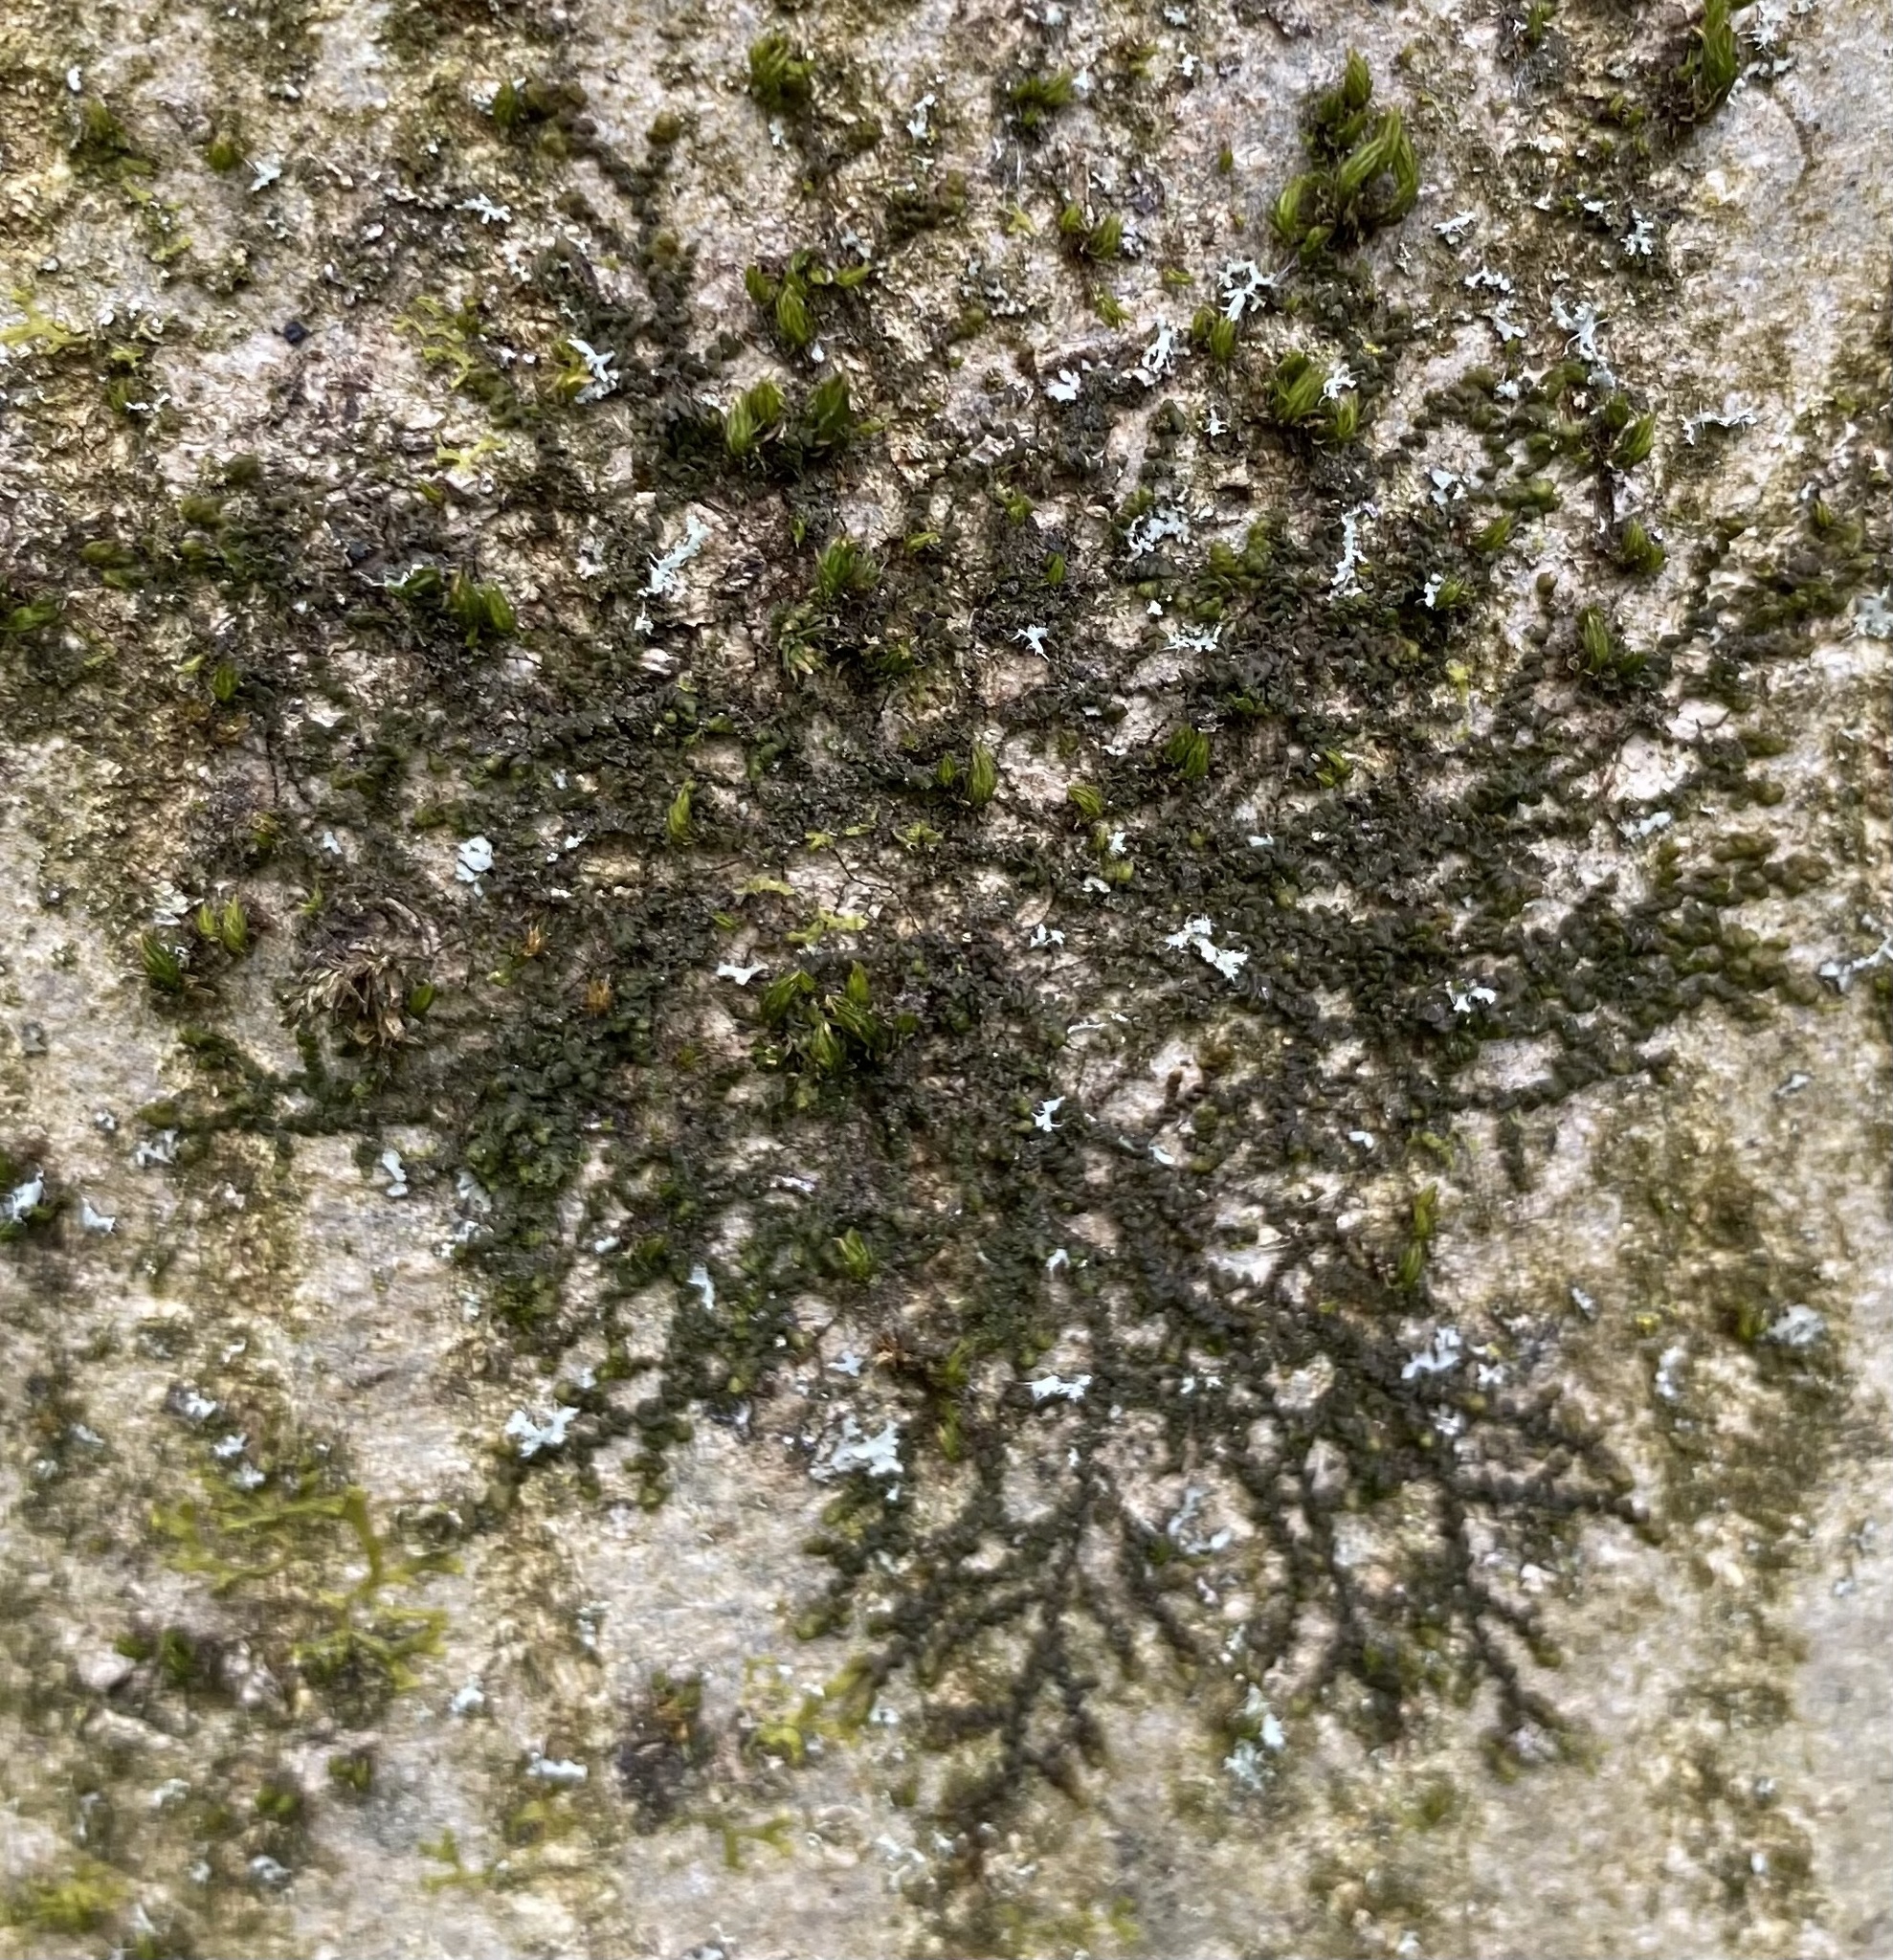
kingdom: Plantae
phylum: Marchantiophyta
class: Jungermanniopsida
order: Porellales
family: Frullaniaceae
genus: Frullania
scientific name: Frullania dilatata
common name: Dilated scalewort
